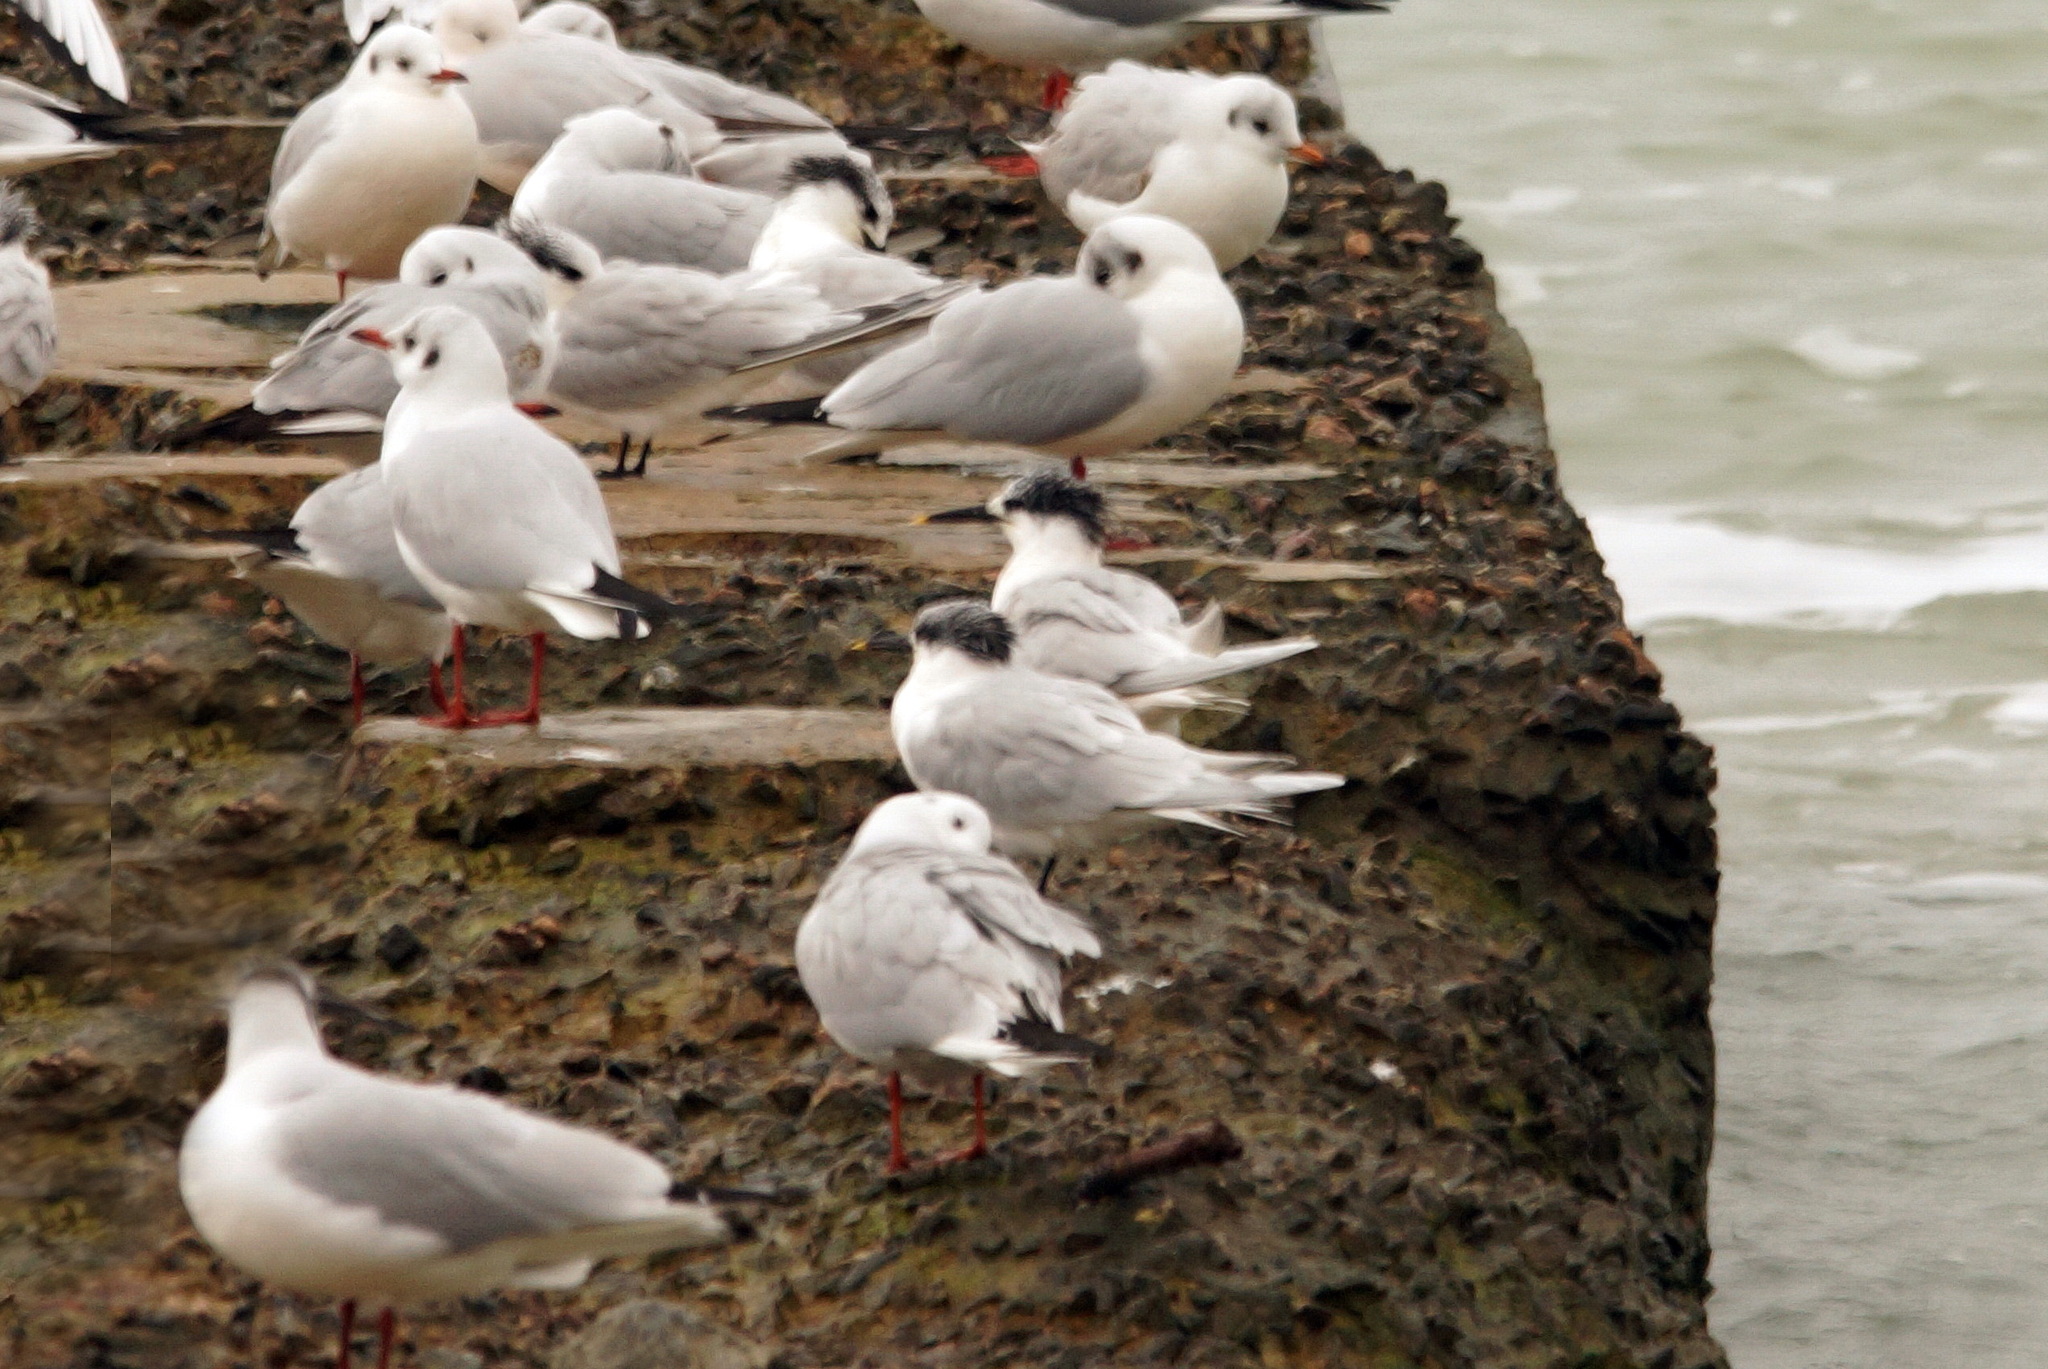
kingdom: Animalia
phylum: Chordata
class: Aves
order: Charadriiformes
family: Laridae
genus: Chroicocephalus
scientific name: Chroicocephalus ridibundus
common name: Black-headed gull
